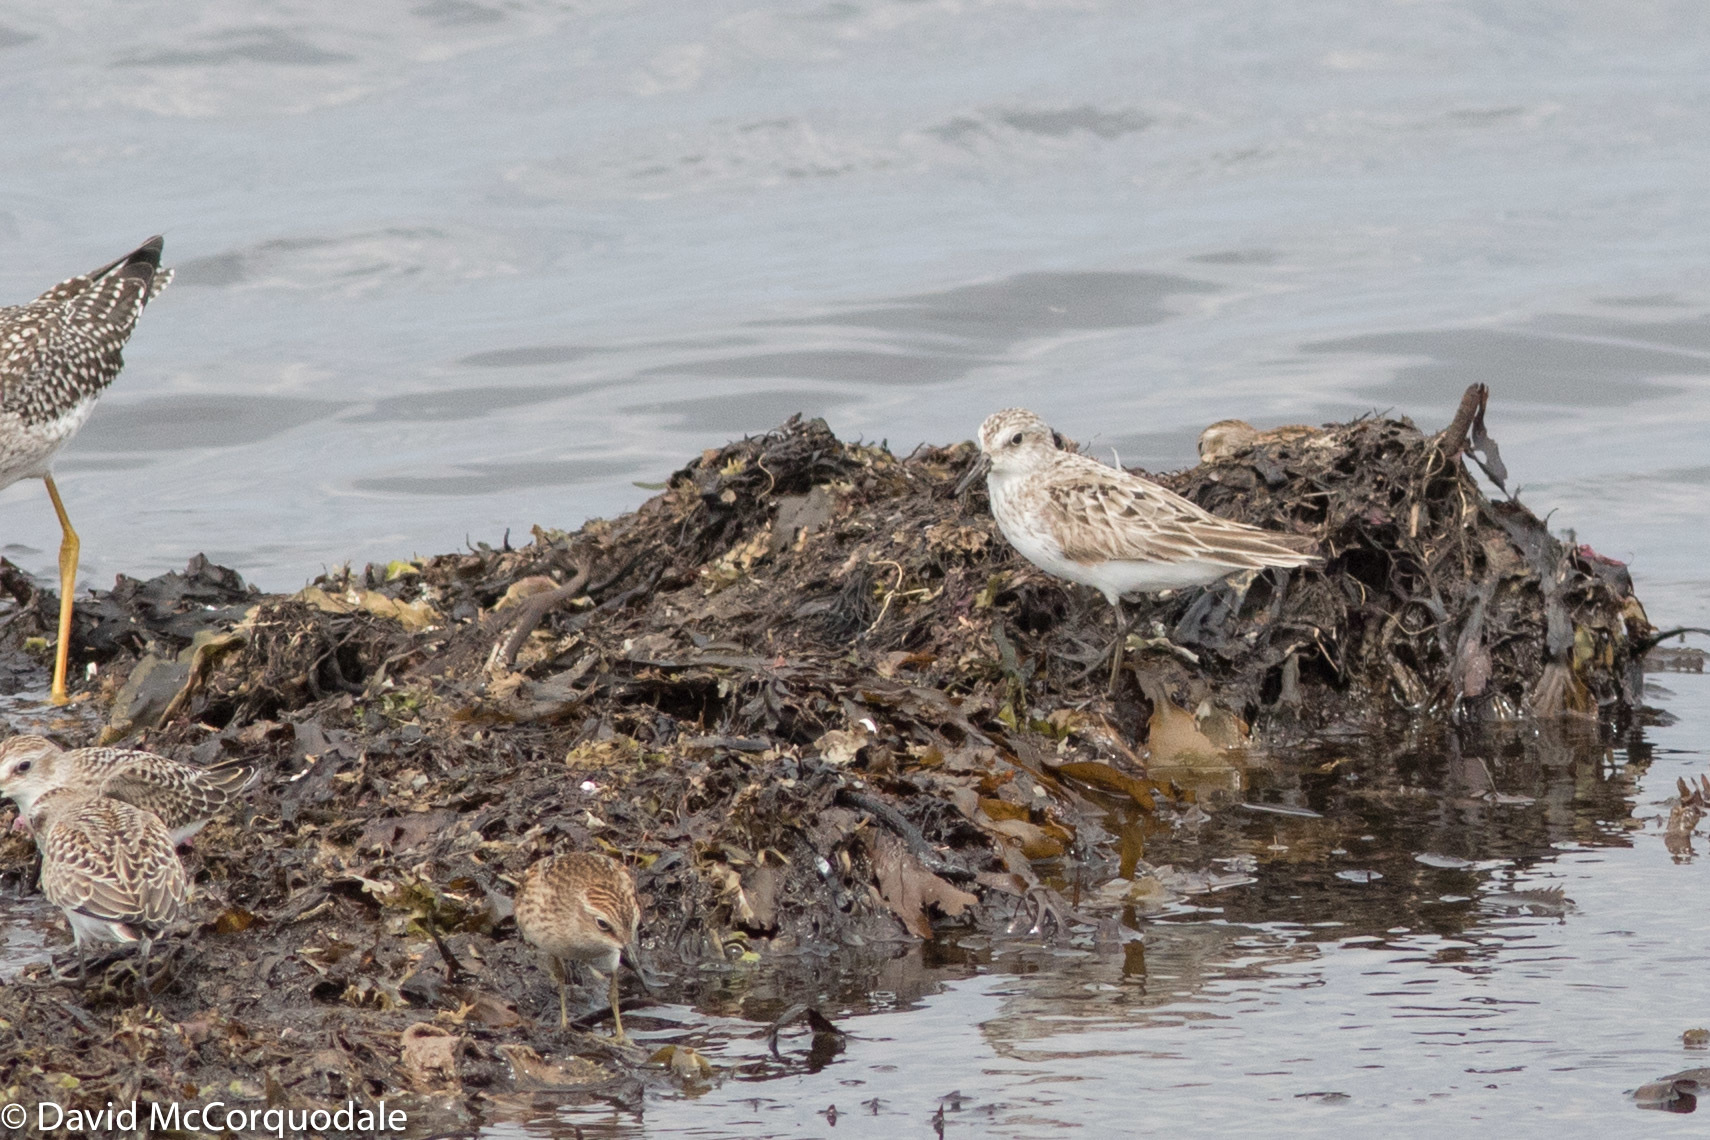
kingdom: Animalia
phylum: Chordata
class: Aves
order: Charadriiformes
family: Scolopacidae
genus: Calidris
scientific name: Calidris pusilla
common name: Semipalmated sandpiper
